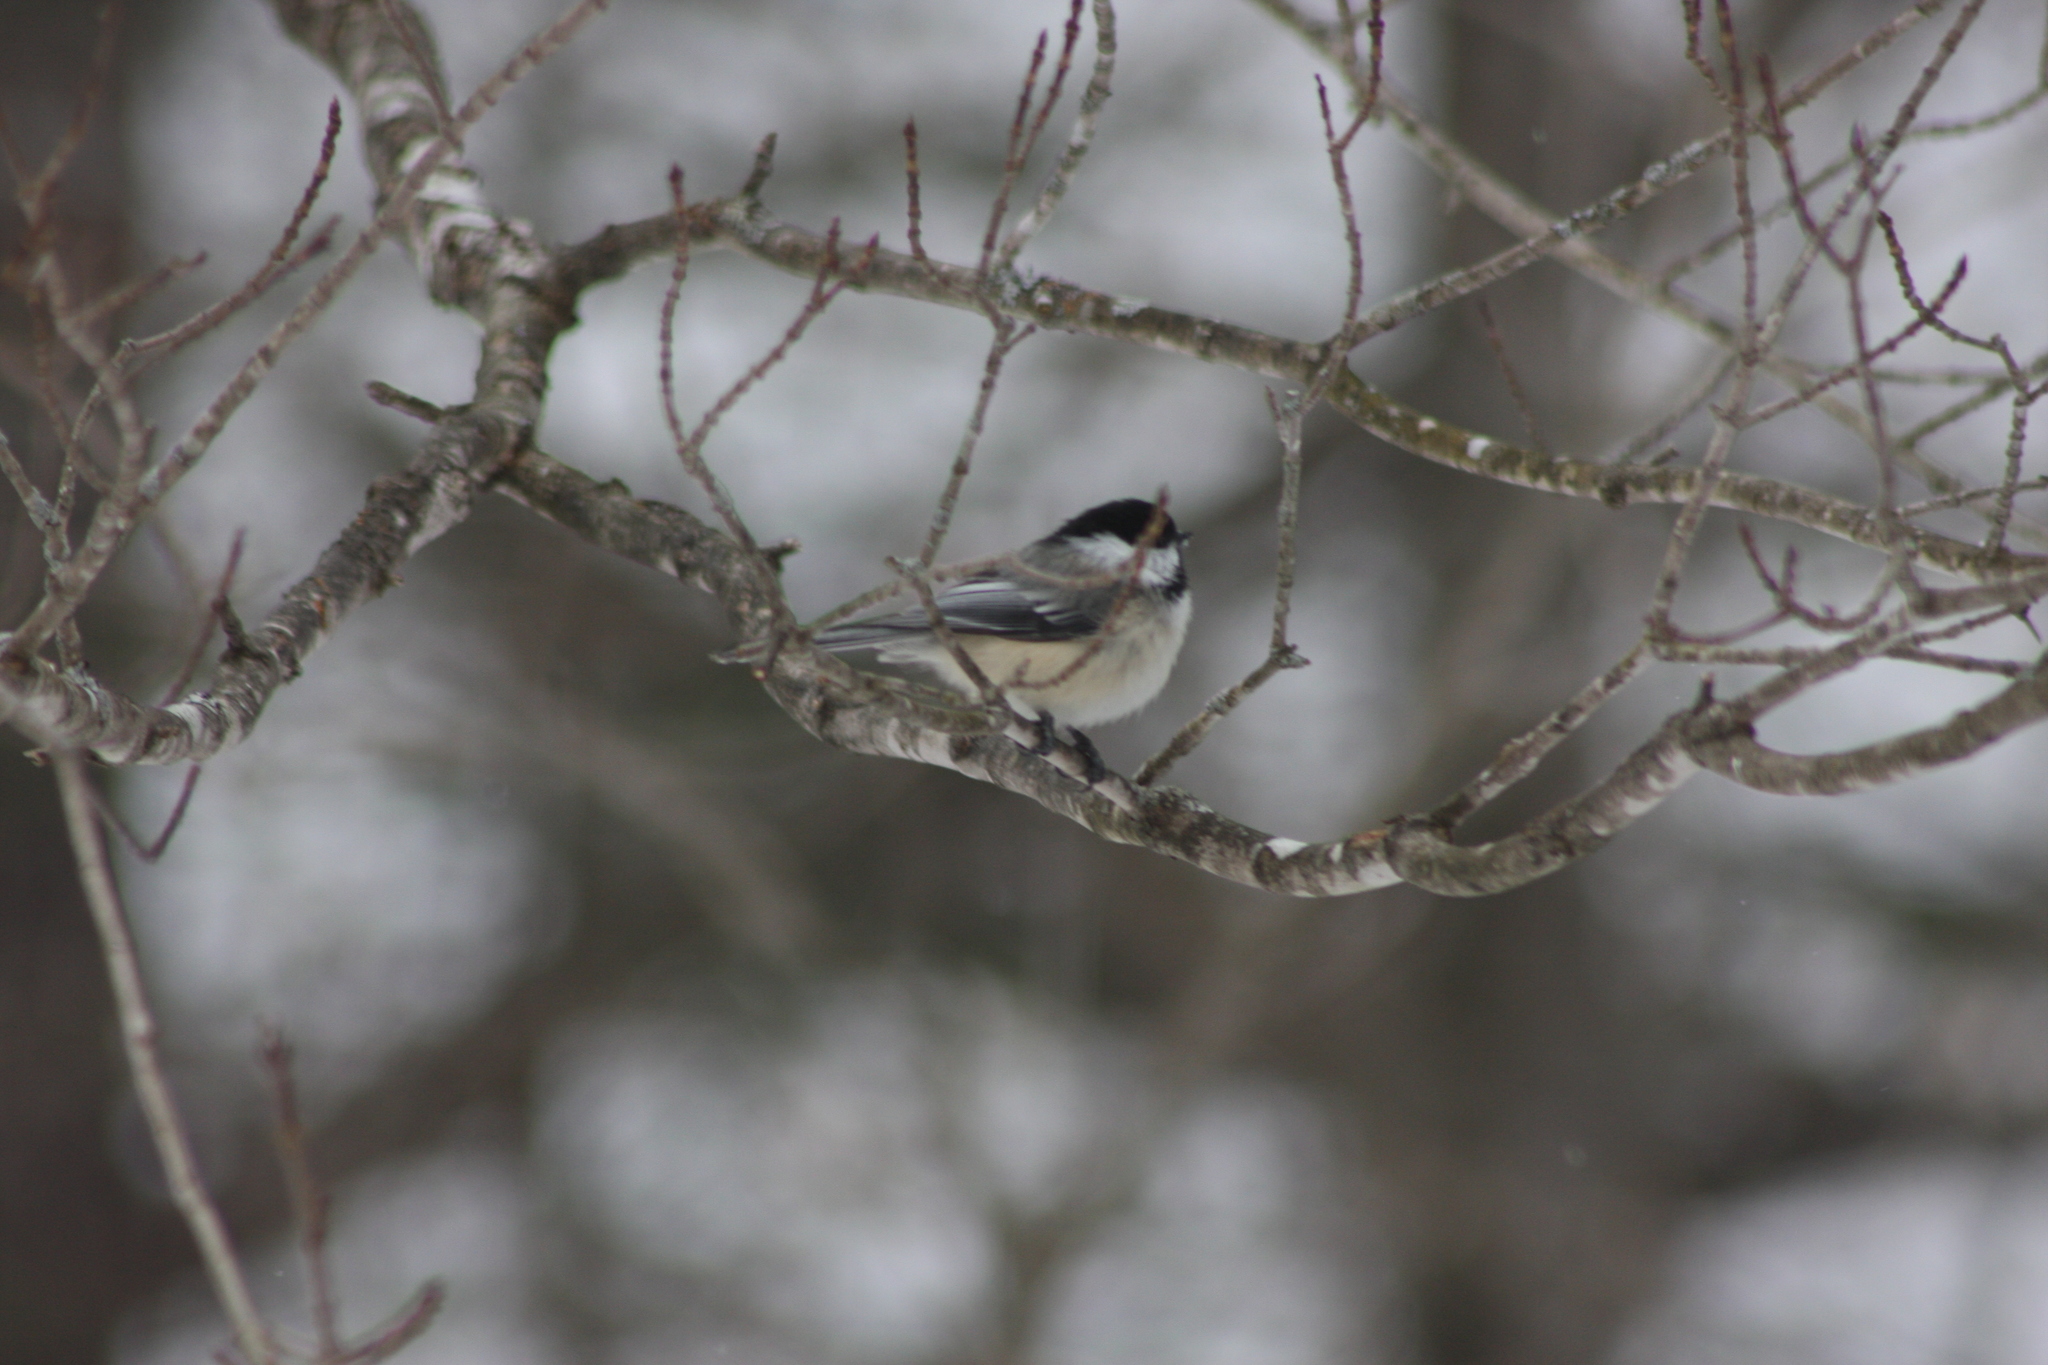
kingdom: Animalia
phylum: Chordata
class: Aves
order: Passeriformes
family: Paridae
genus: Poecile
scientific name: Poecile atricapillus
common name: Black-capped chickadee
